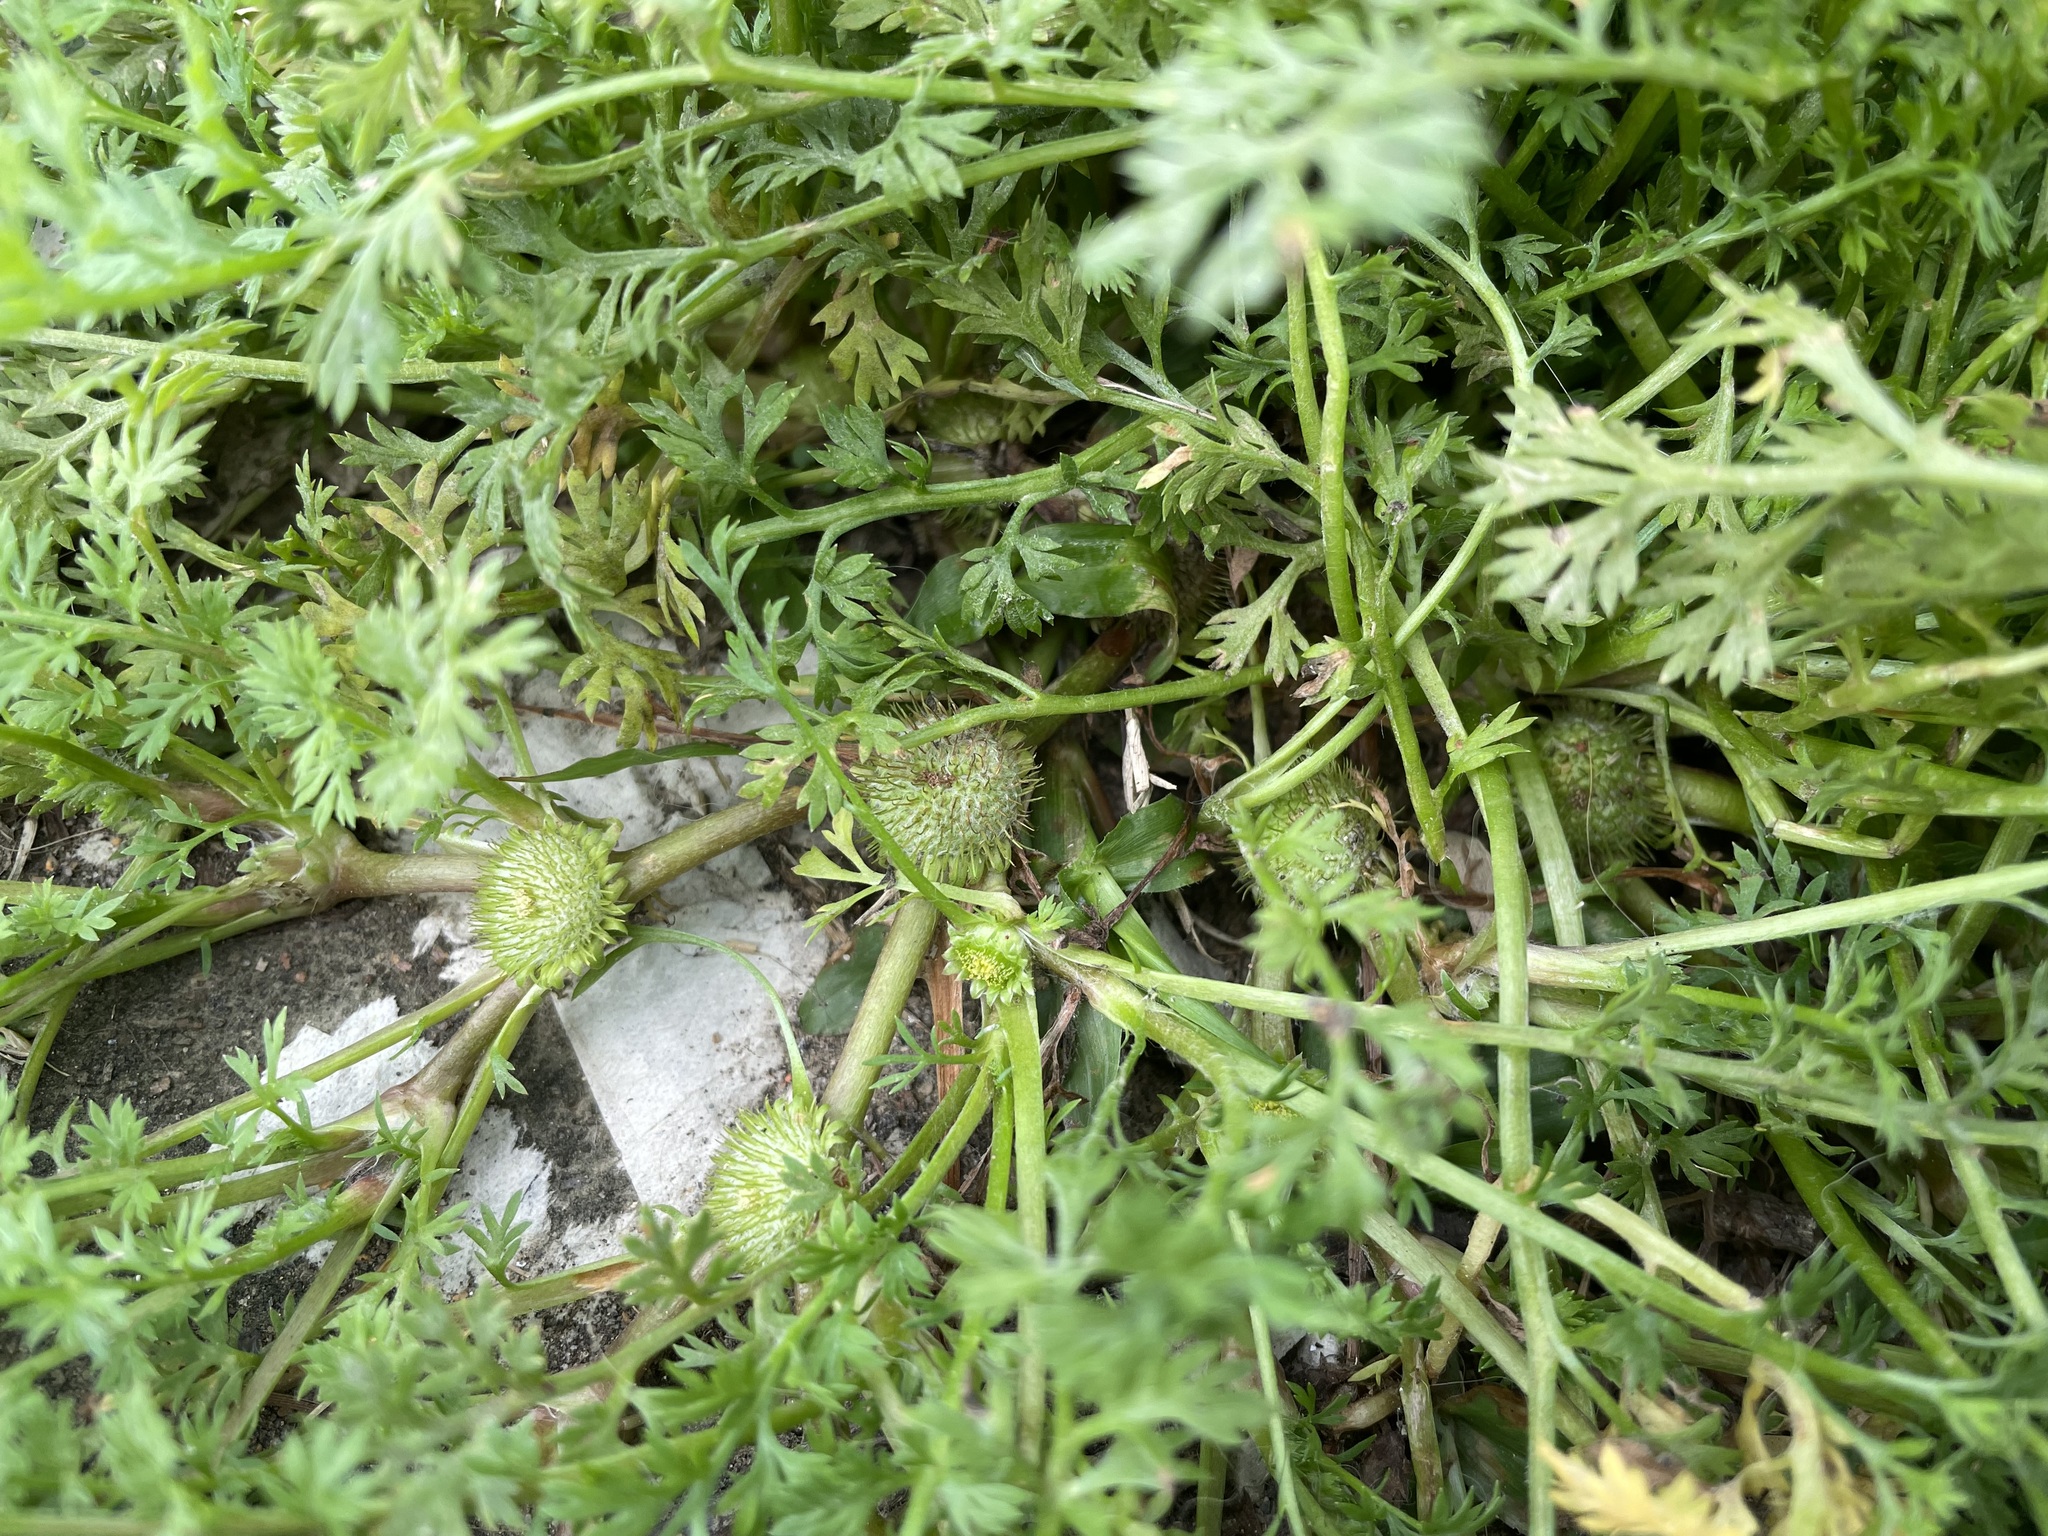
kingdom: Plantae
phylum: Tracheophyta
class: Magnoliopsida
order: Asterales
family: Asteraceae
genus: Soliva
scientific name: Soliva anthemifolia
